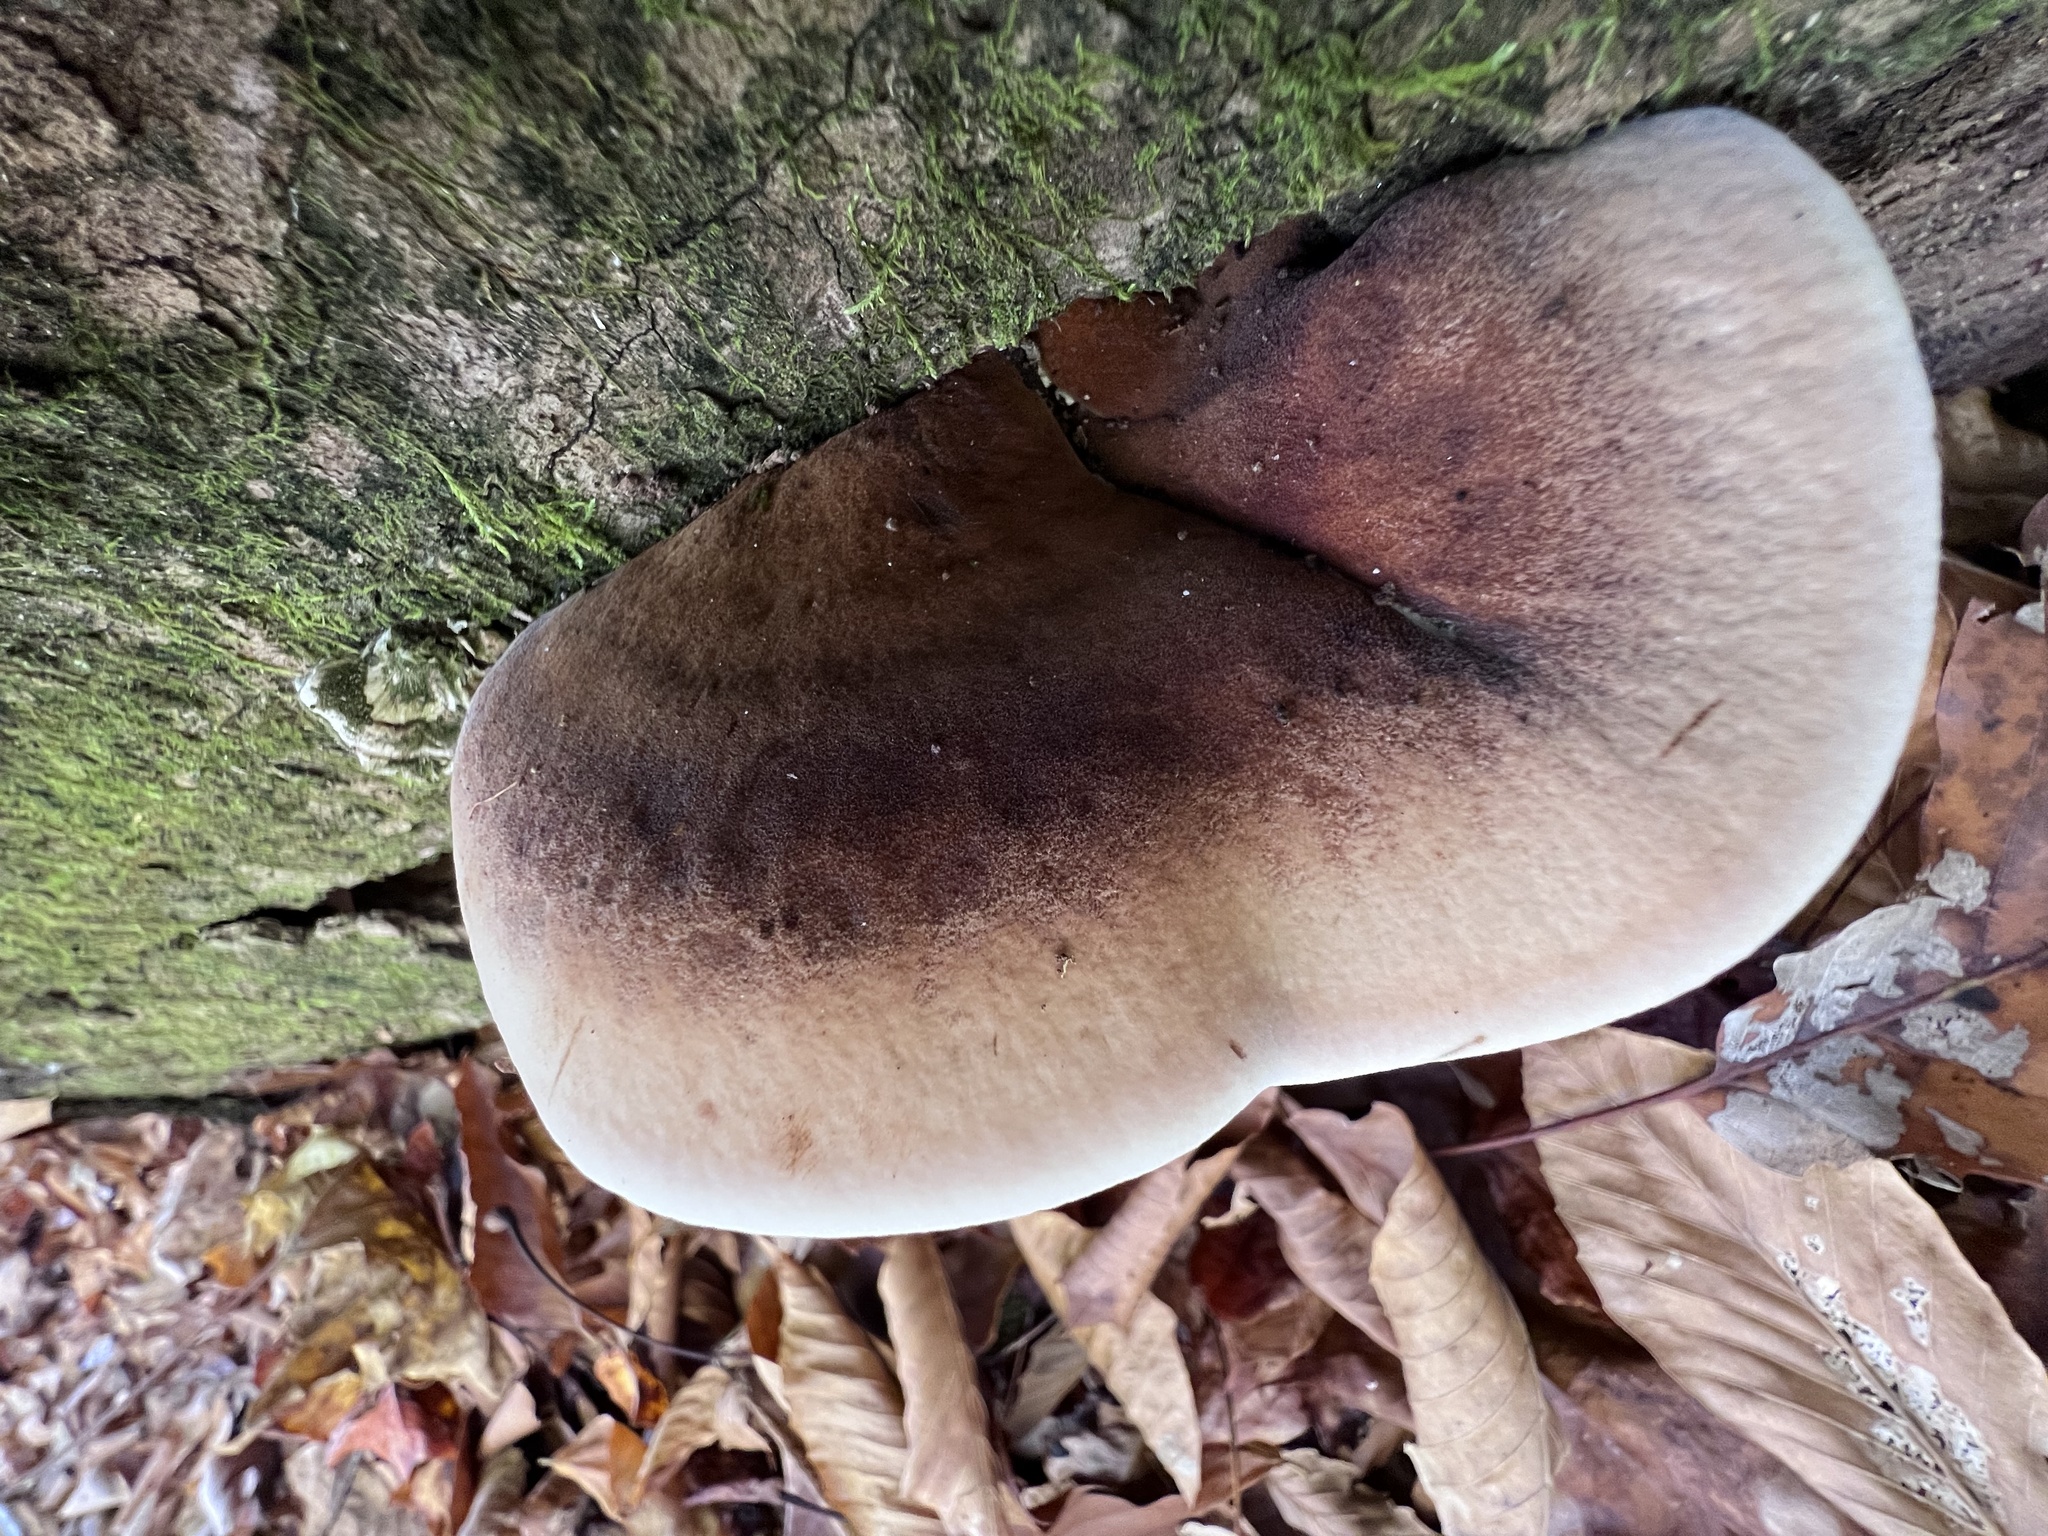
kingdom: Fungi
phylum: Basidiomycota
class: Agaricomycetes
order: Polyporales
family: Ischnodermataceae
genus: Ischnoderma
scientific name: Ischnoderma resinosum
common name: Resinous polypore
